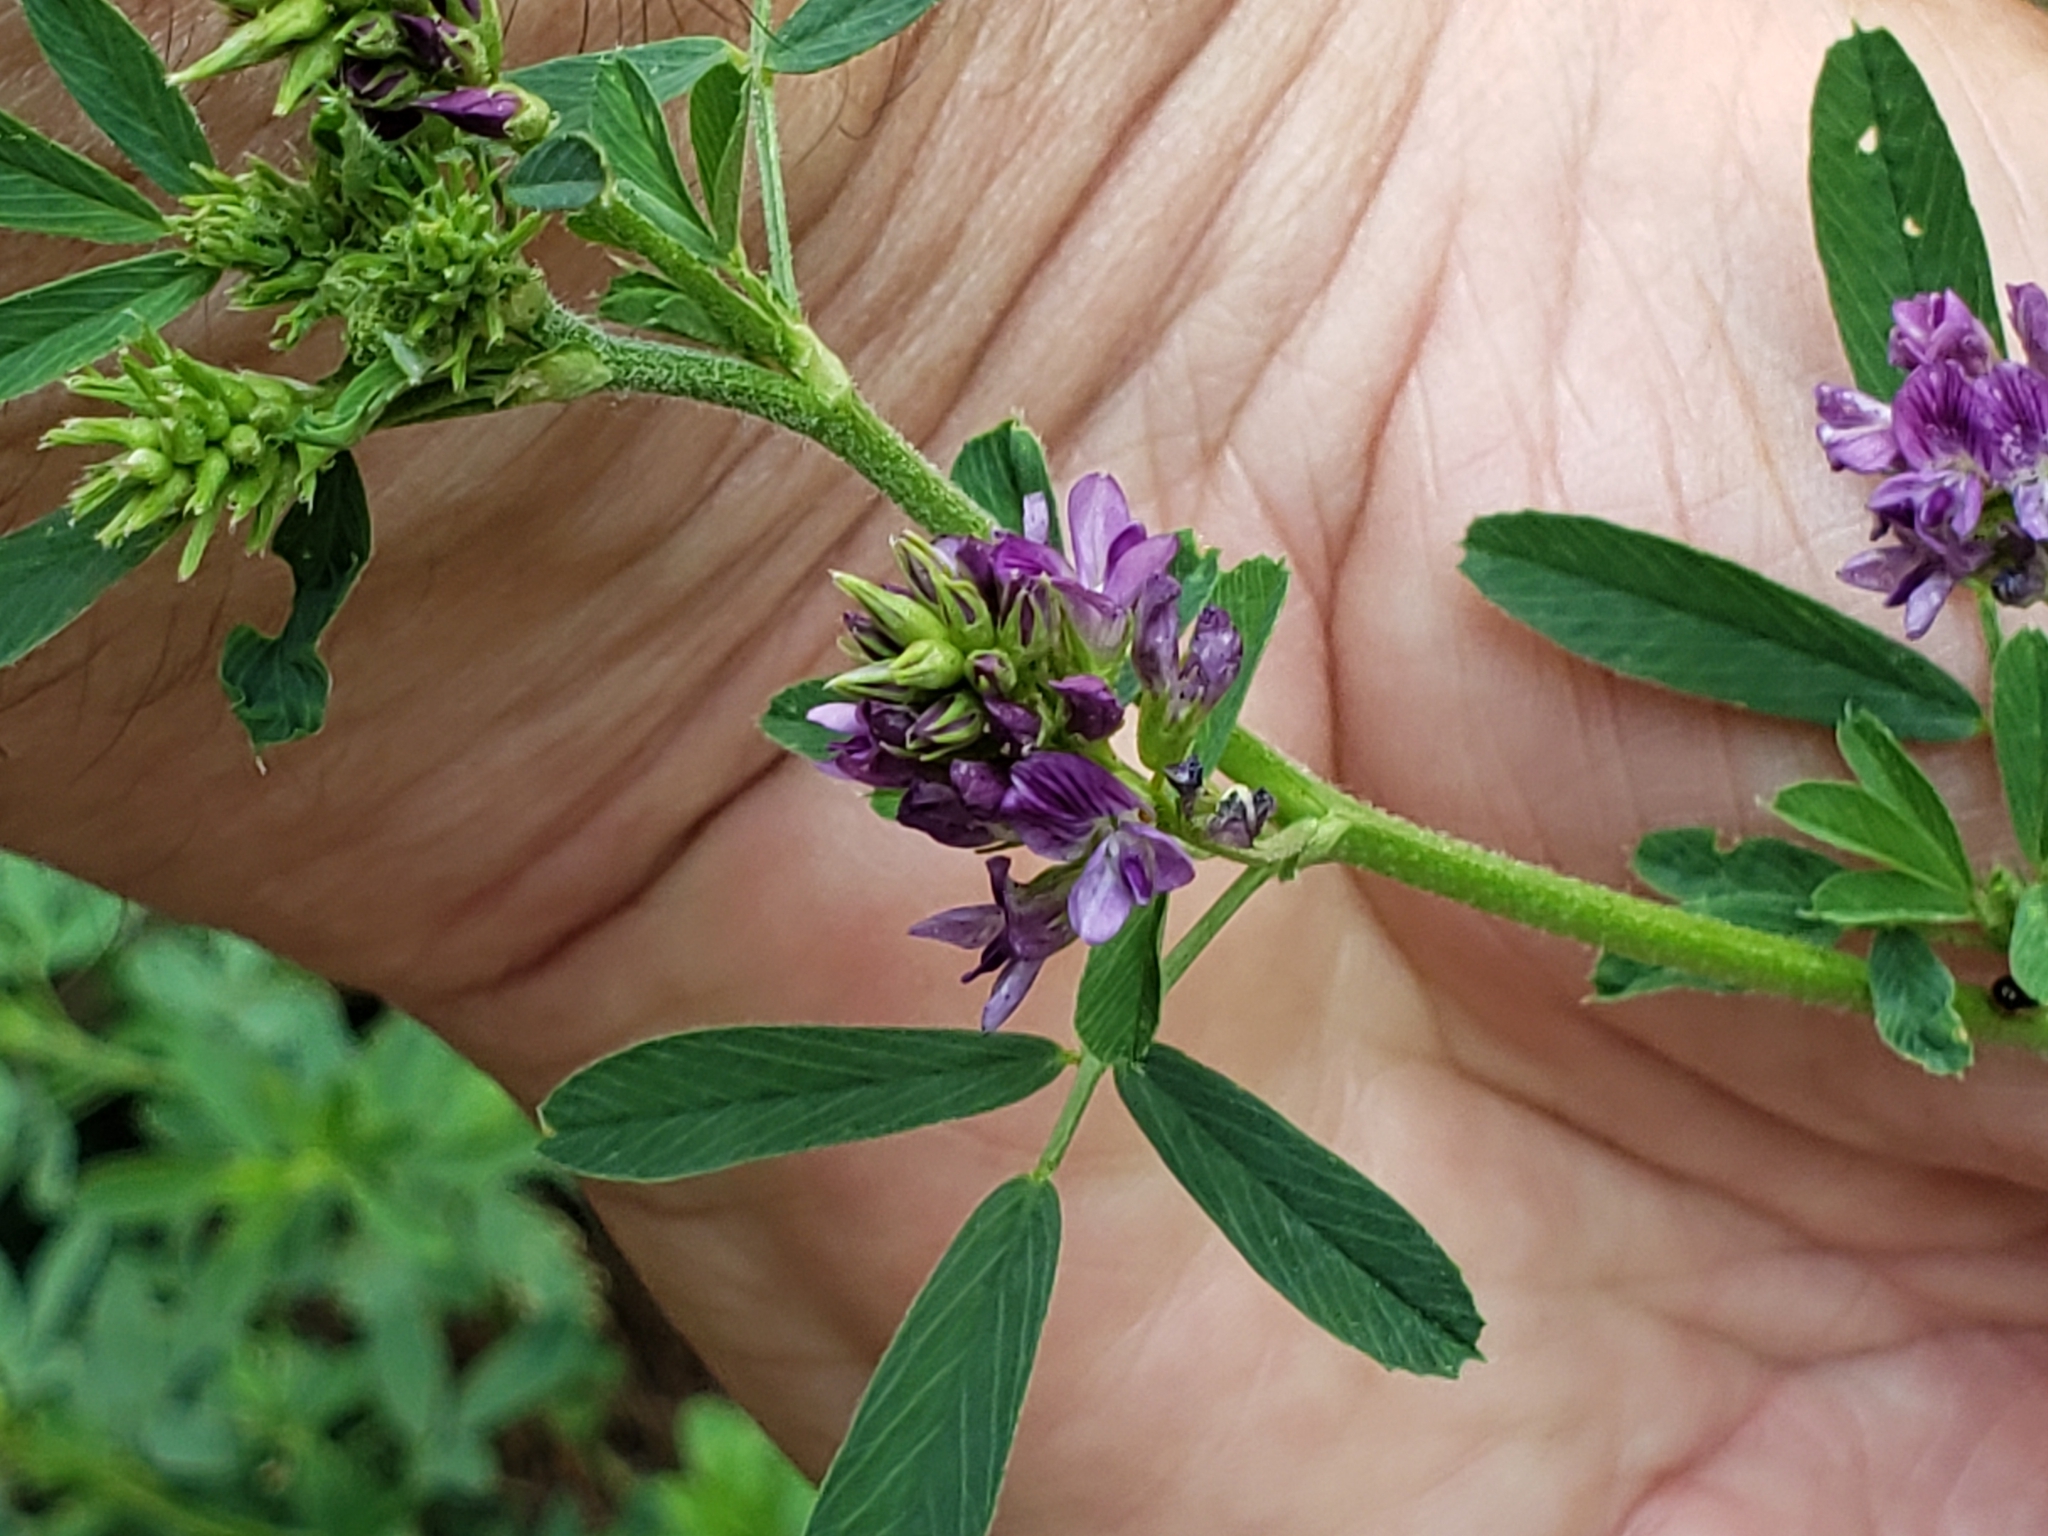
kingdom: Plantae
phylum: Tracheophyta
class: Magnoliopsida
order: Fabales
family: Fabaceae
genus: Medicago
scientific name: Medicago sativa
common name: Alfalfa
